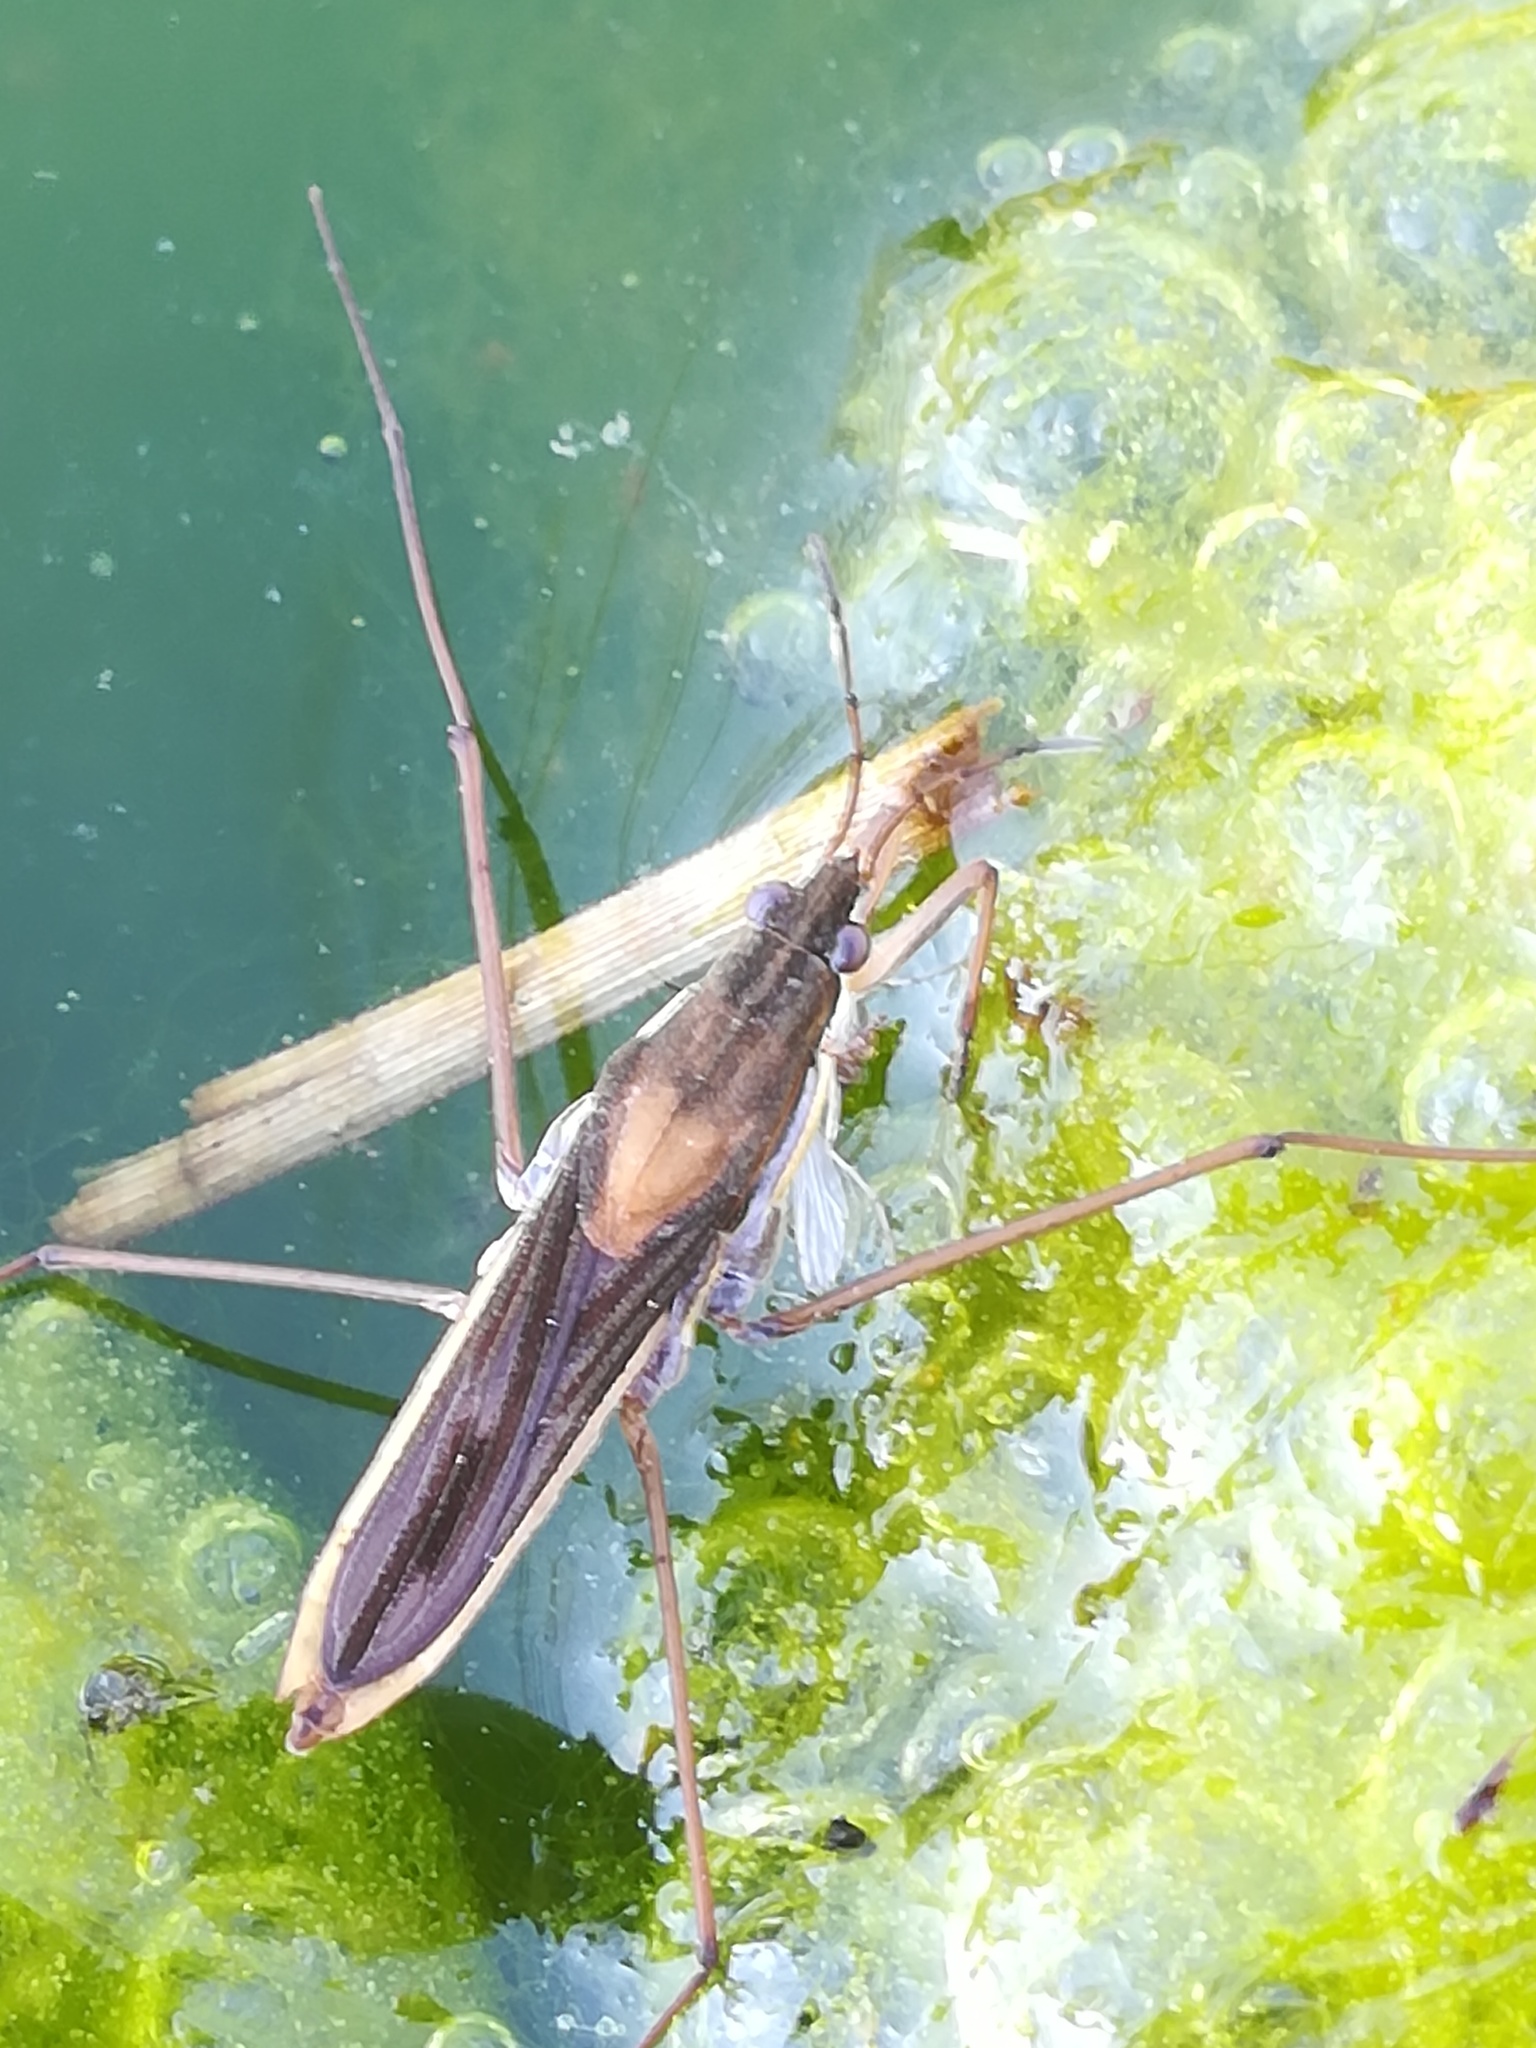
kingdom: Animalia
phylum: Arthropoda
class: Insecta
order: Hemiptera
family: Gerridae
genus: Gerris
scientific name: Gerris thoracicus
